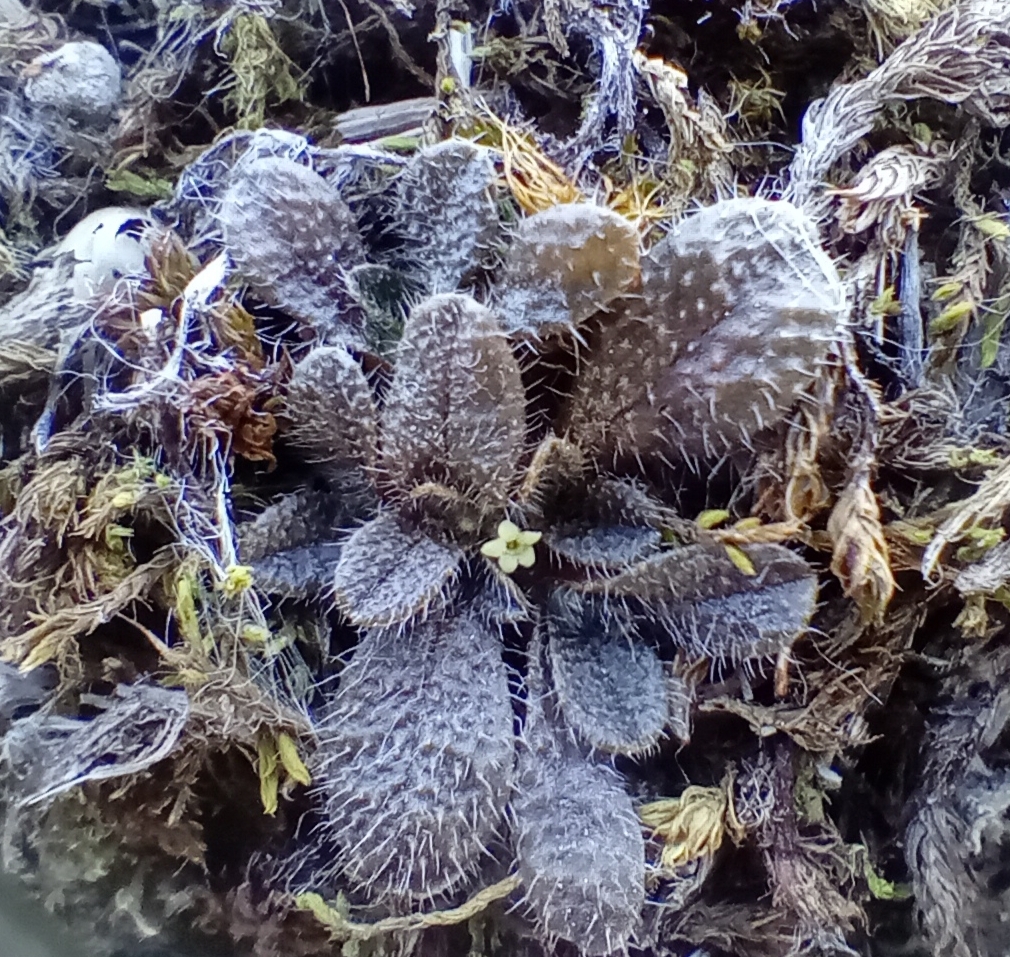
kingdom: Plantae
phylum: Tracheophyta
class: Magnoliopsida
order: Boraginales
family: Boraginaceae
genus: Myosotis
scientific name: Myosotis brevis
